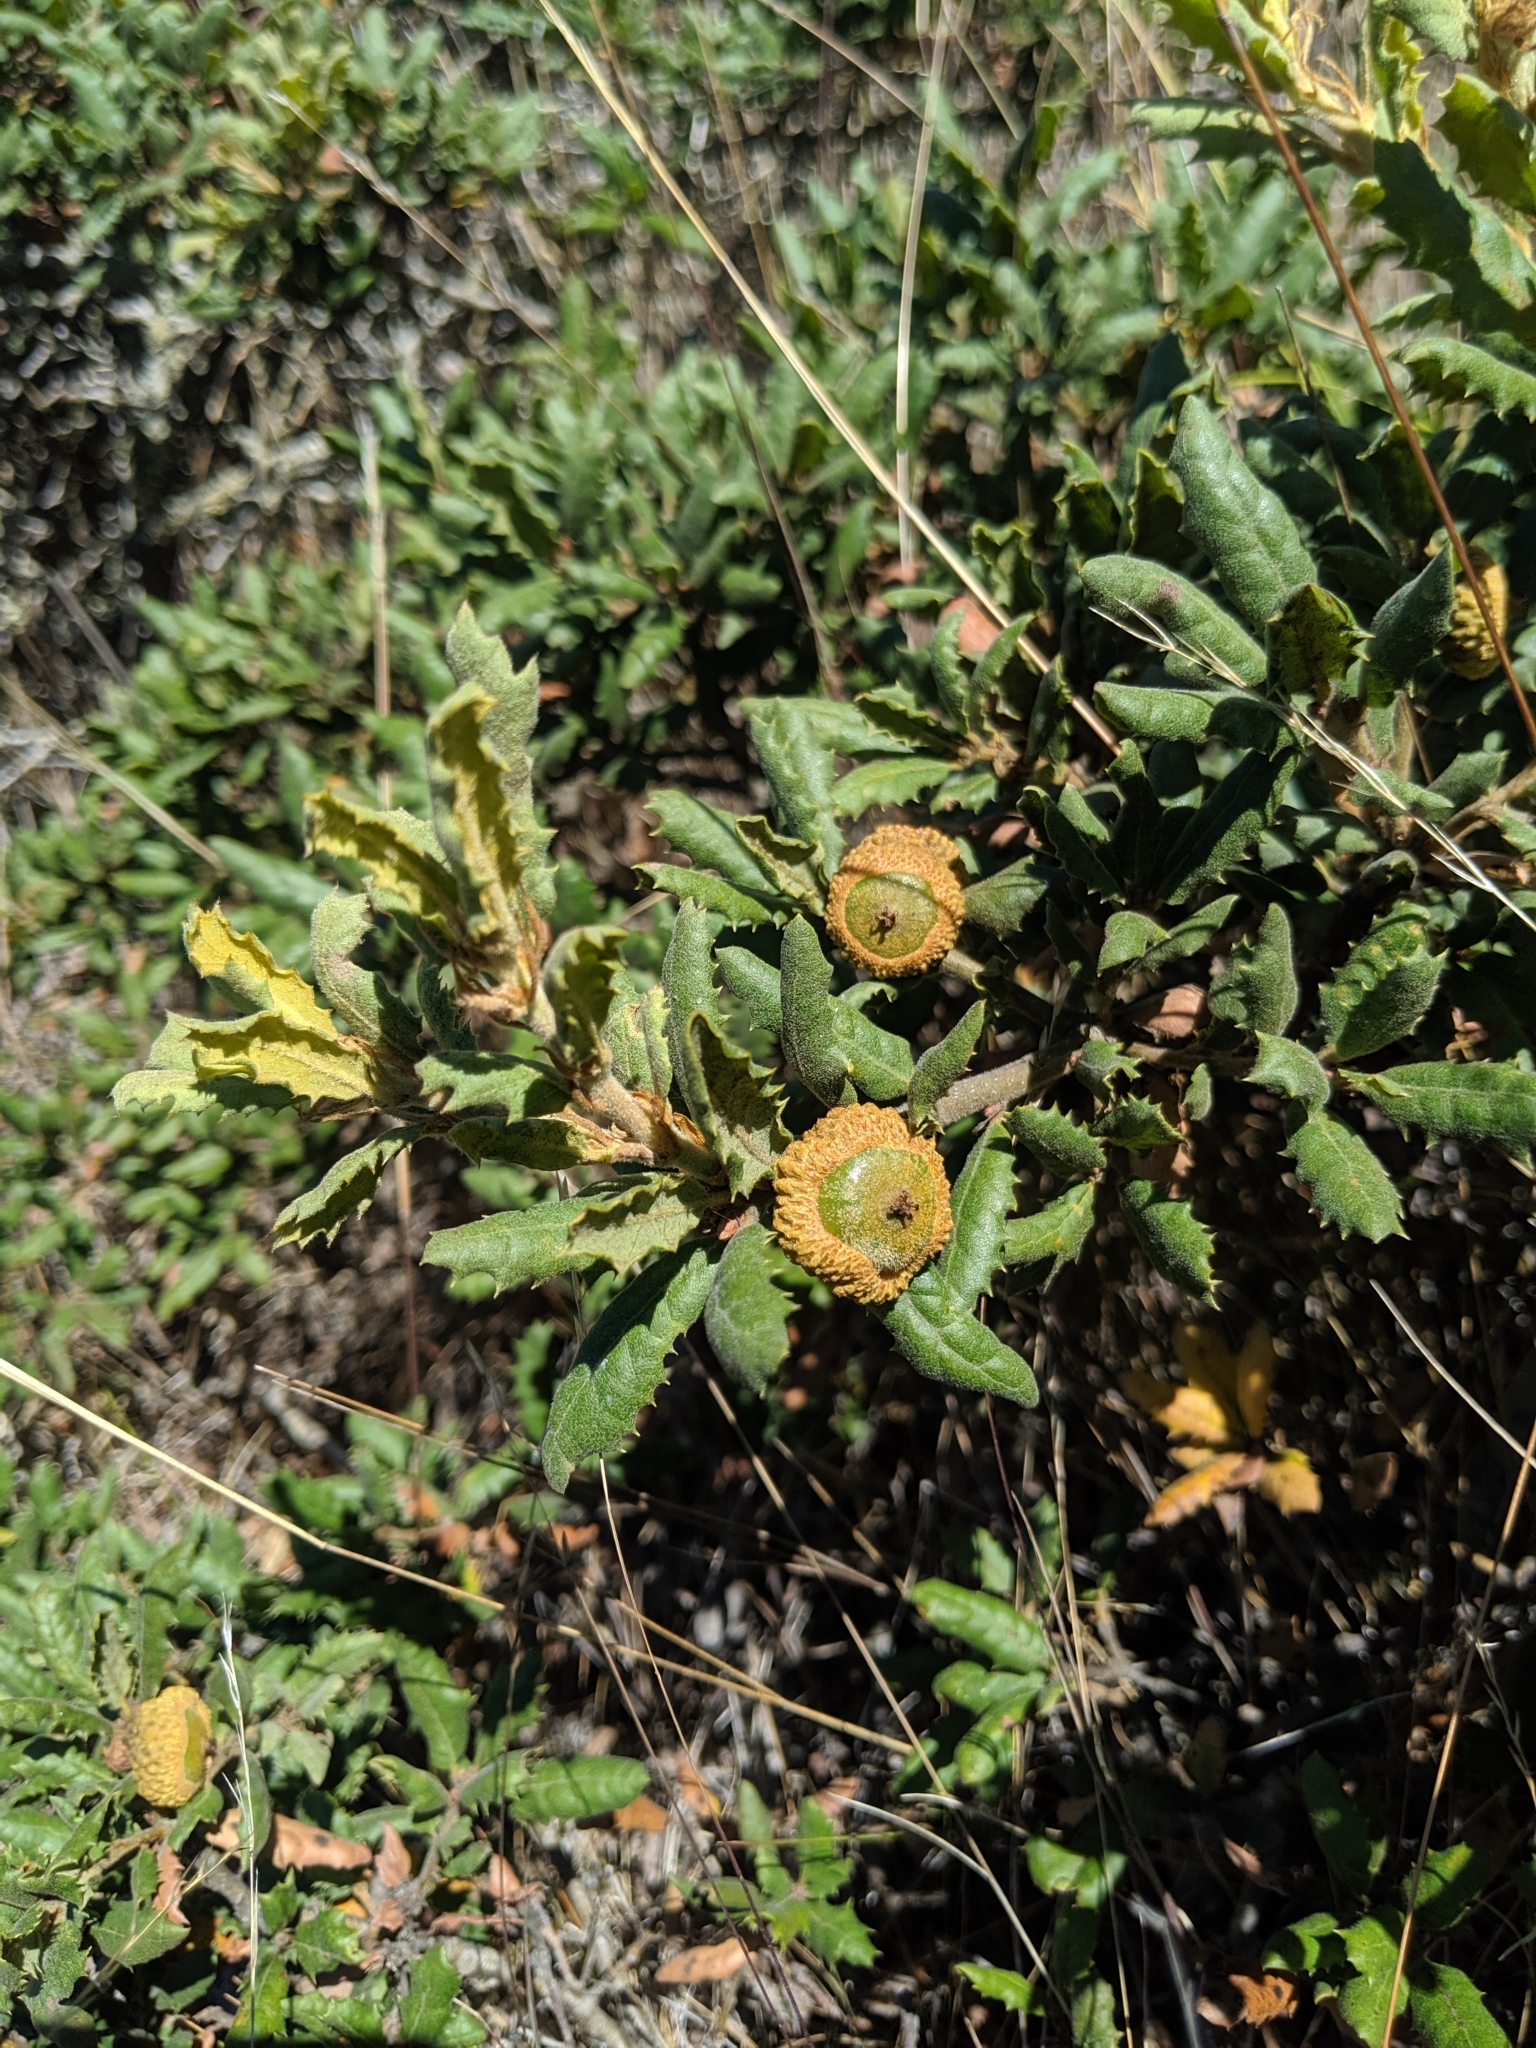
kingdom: Plantae
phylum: Tracheophyta
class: Magnoliopsida
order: Fagales
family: Fagaceae
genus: Quercus
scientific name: Quercus durata
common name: Leather oak
